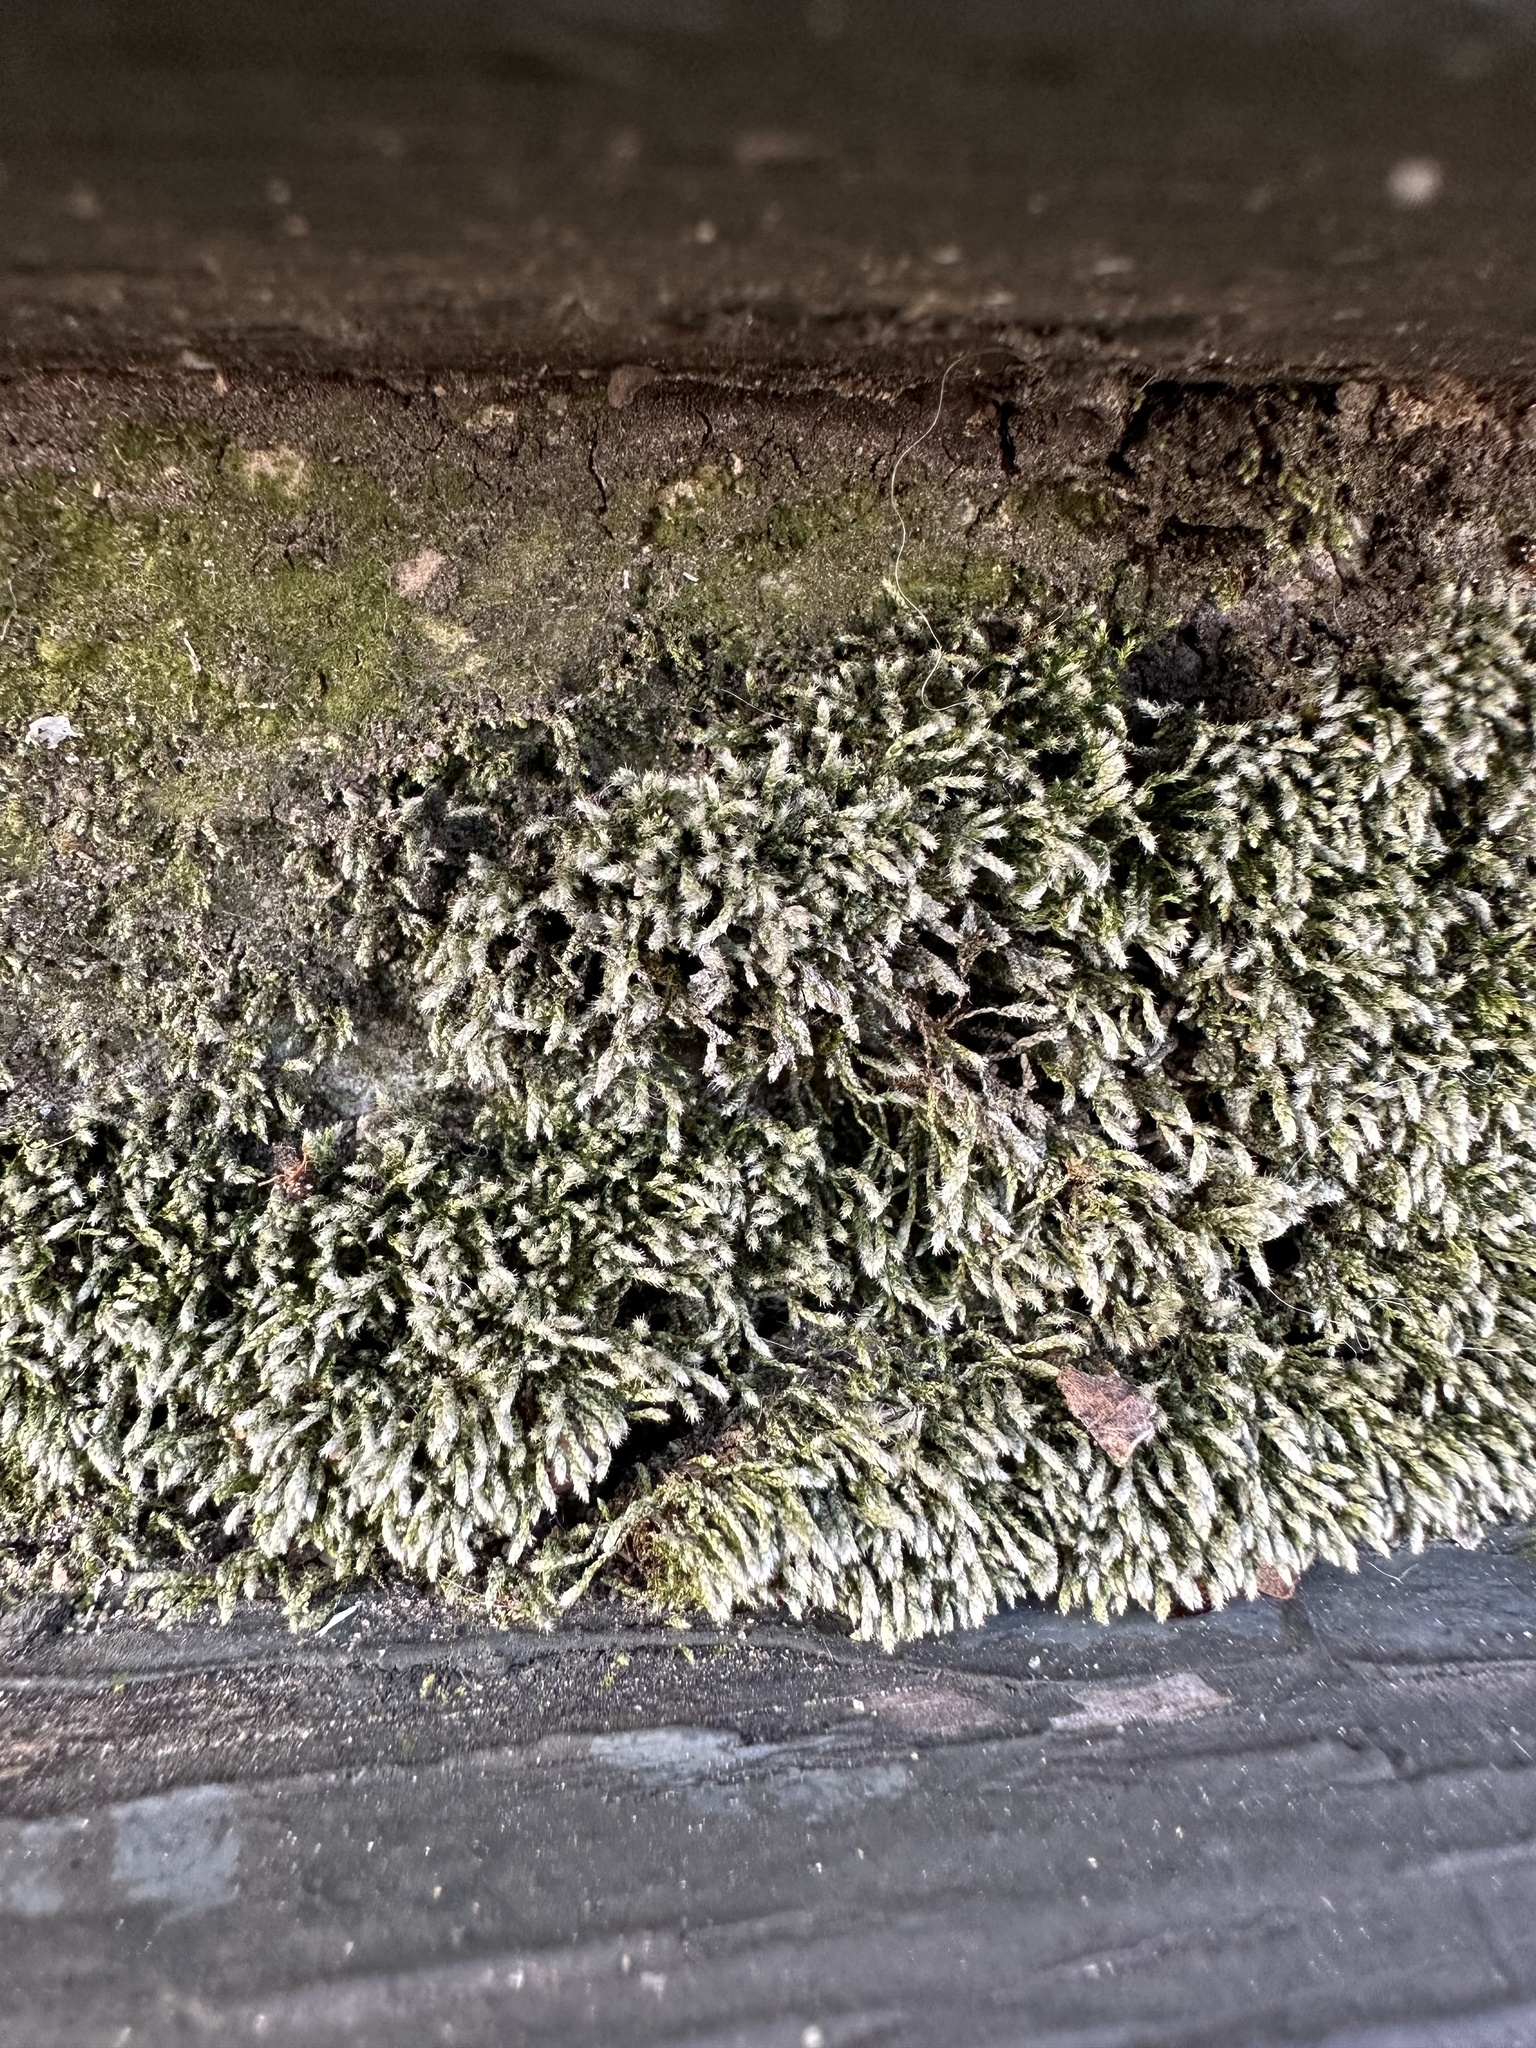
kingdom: Plantae
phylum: Bryophyta
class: Bryopsida
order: Bryales
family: Bryaceae
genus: Bryum
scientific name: Bryum argenteum
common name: Silver-moss
